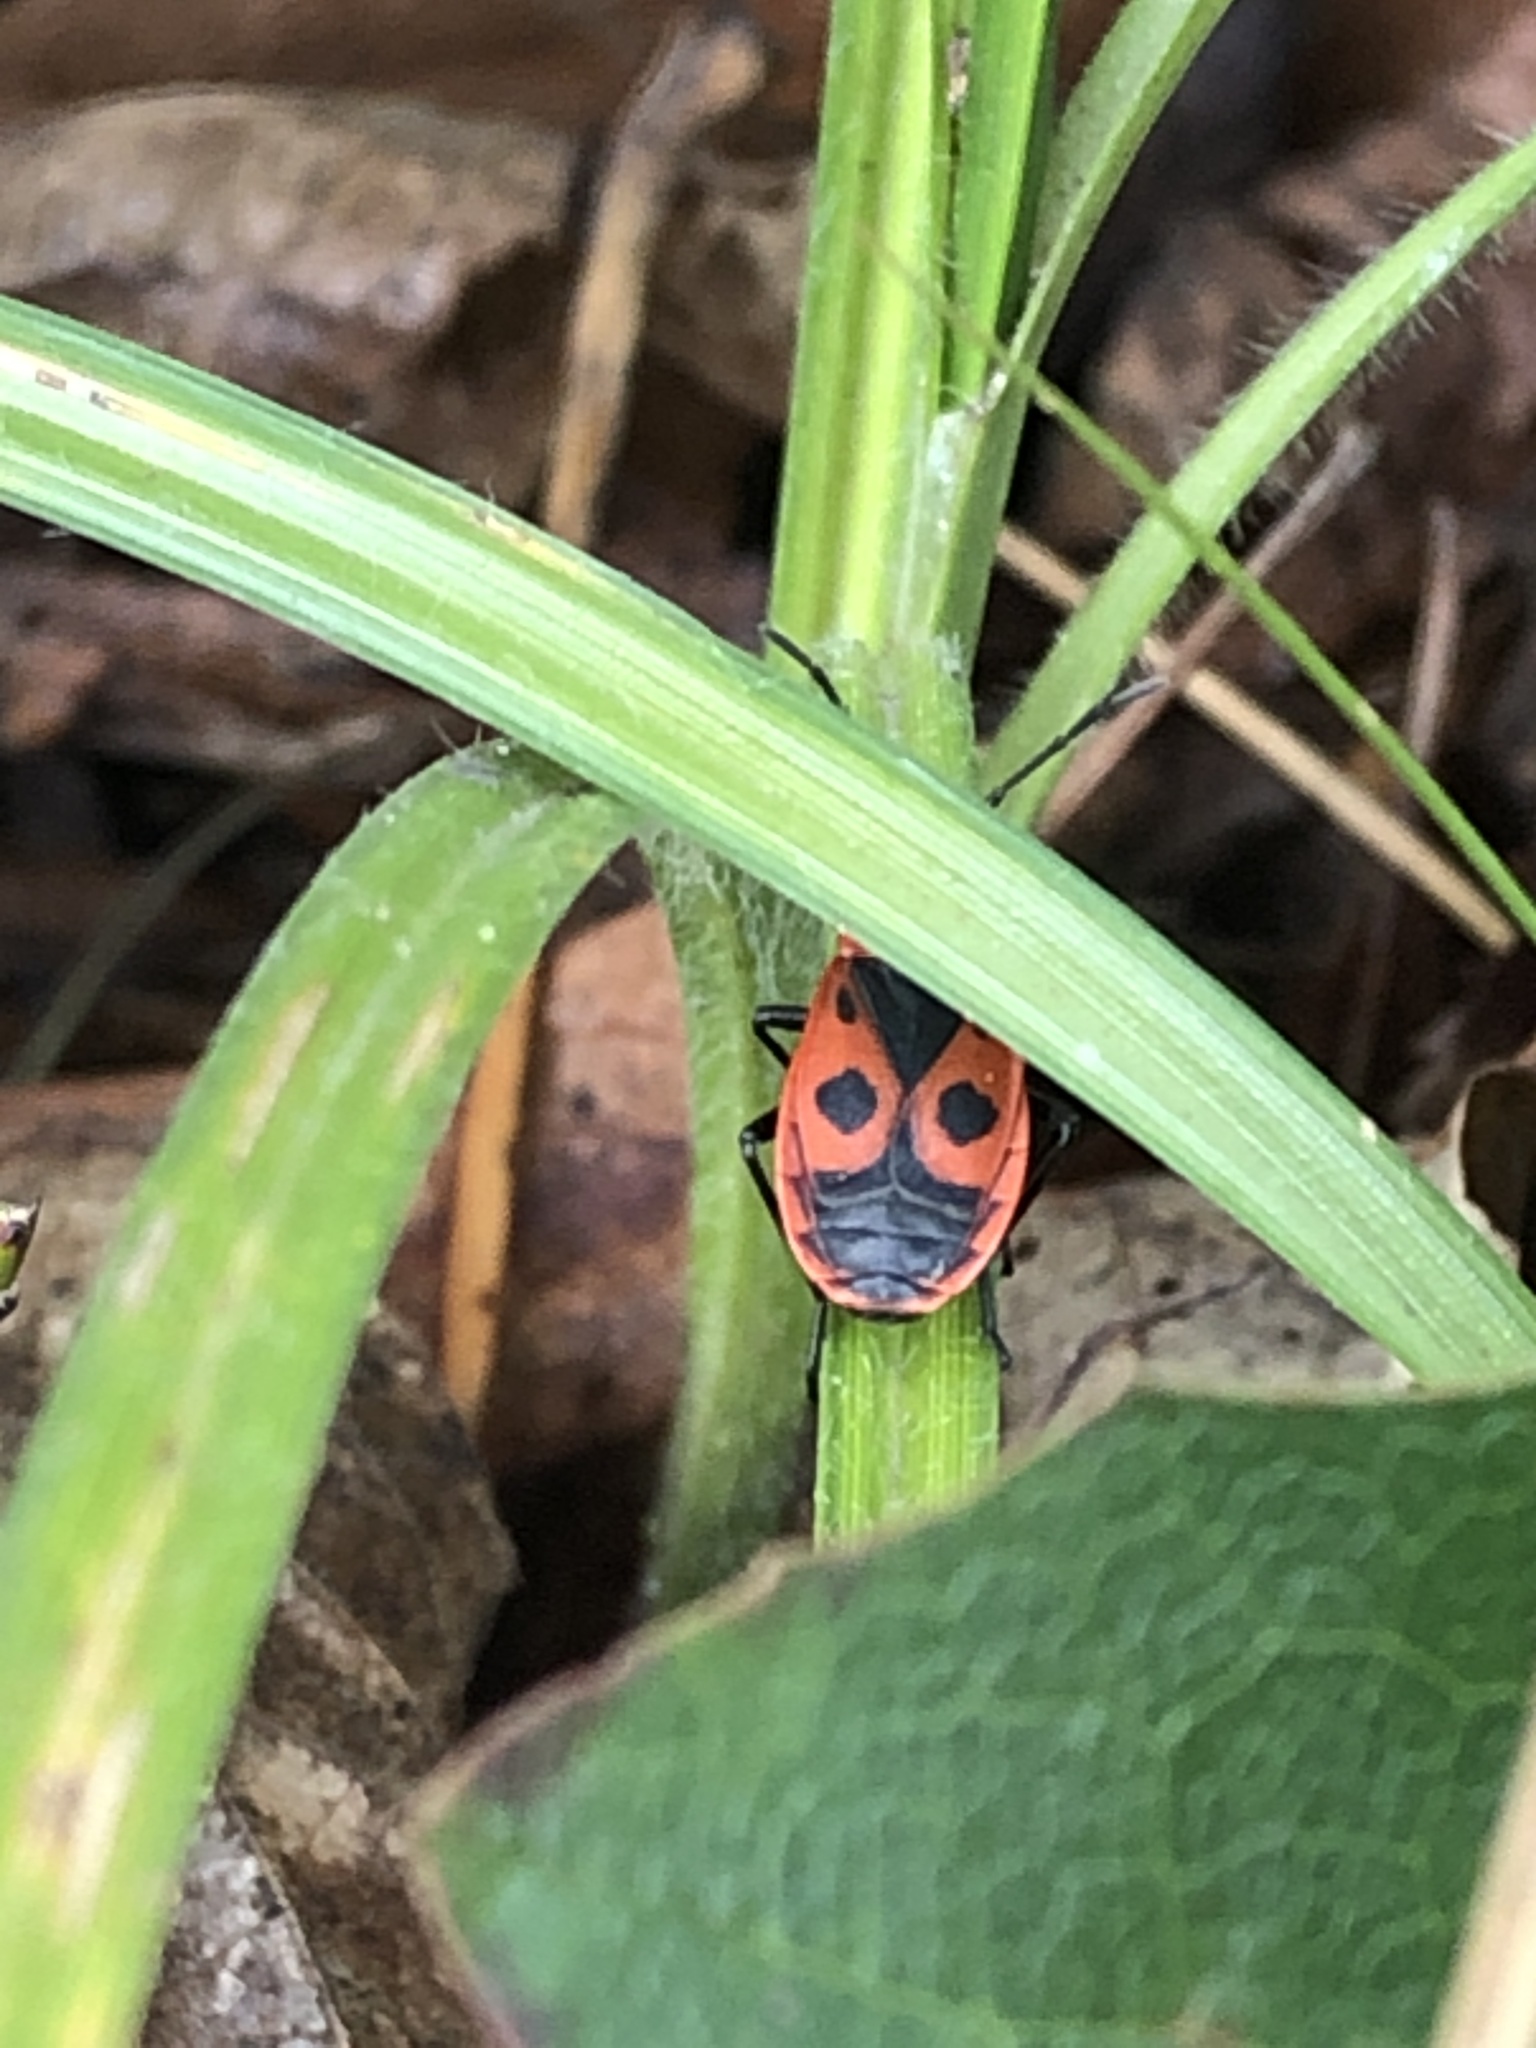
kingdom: Animalia
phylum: Arthropoda
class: Insecta
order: Hemiptera
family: Pyrrhocoridae
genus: Pyrrhocoris
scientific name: Pyrrhocoris apterus
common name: Firebug
